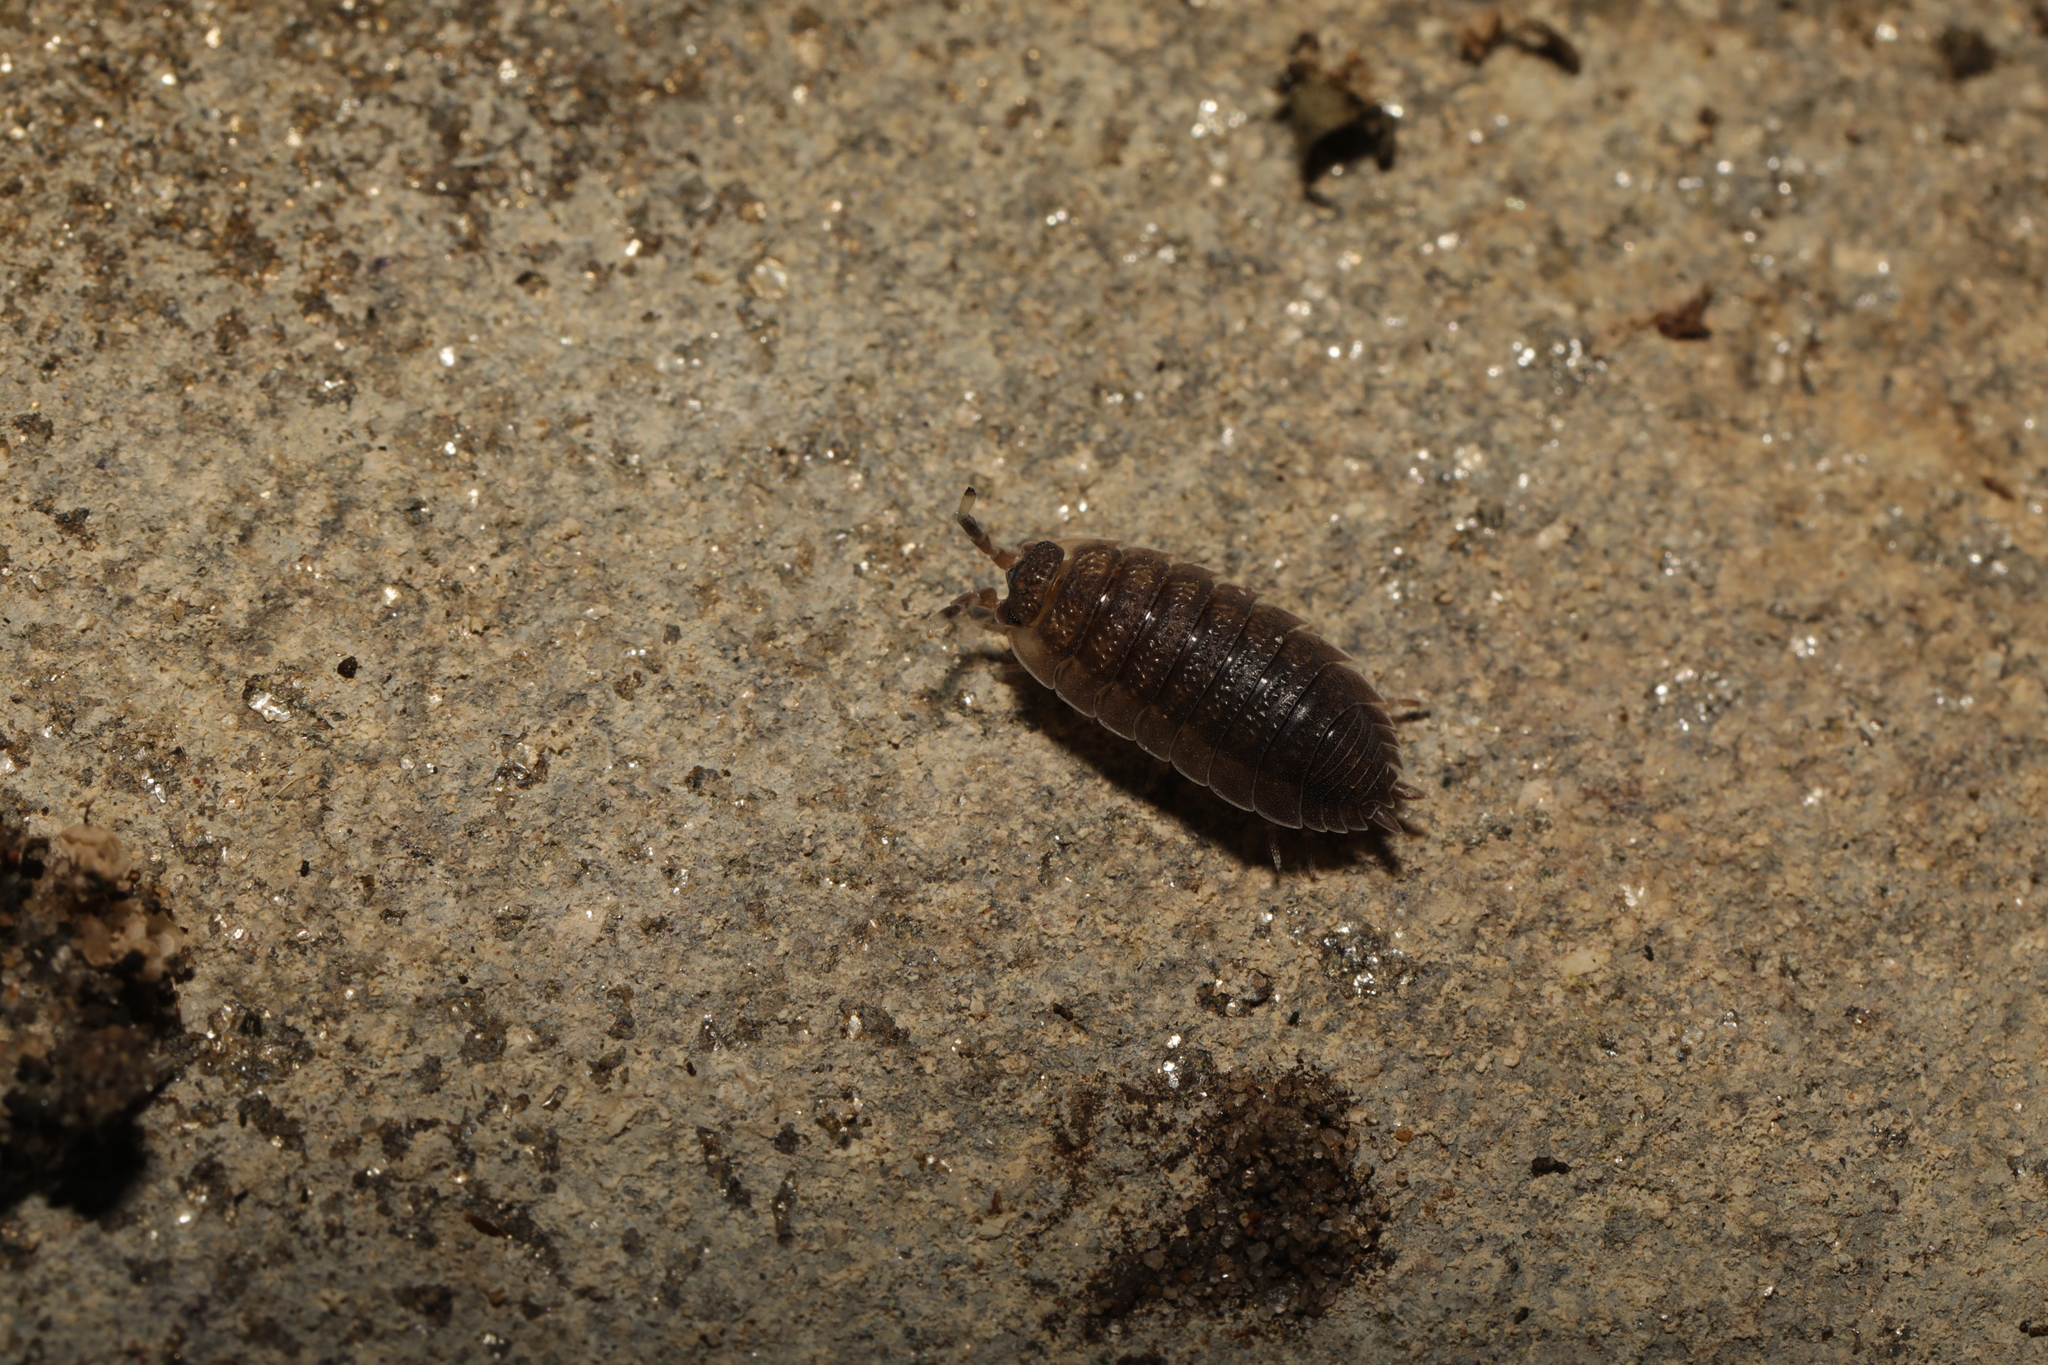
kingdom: Animalia
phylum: Arthropoda
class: Malacostraca
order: Isopoda
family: Porcellionidae
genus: Porcellio
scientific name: Porcellio scaber
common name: Common rough woodlouse
